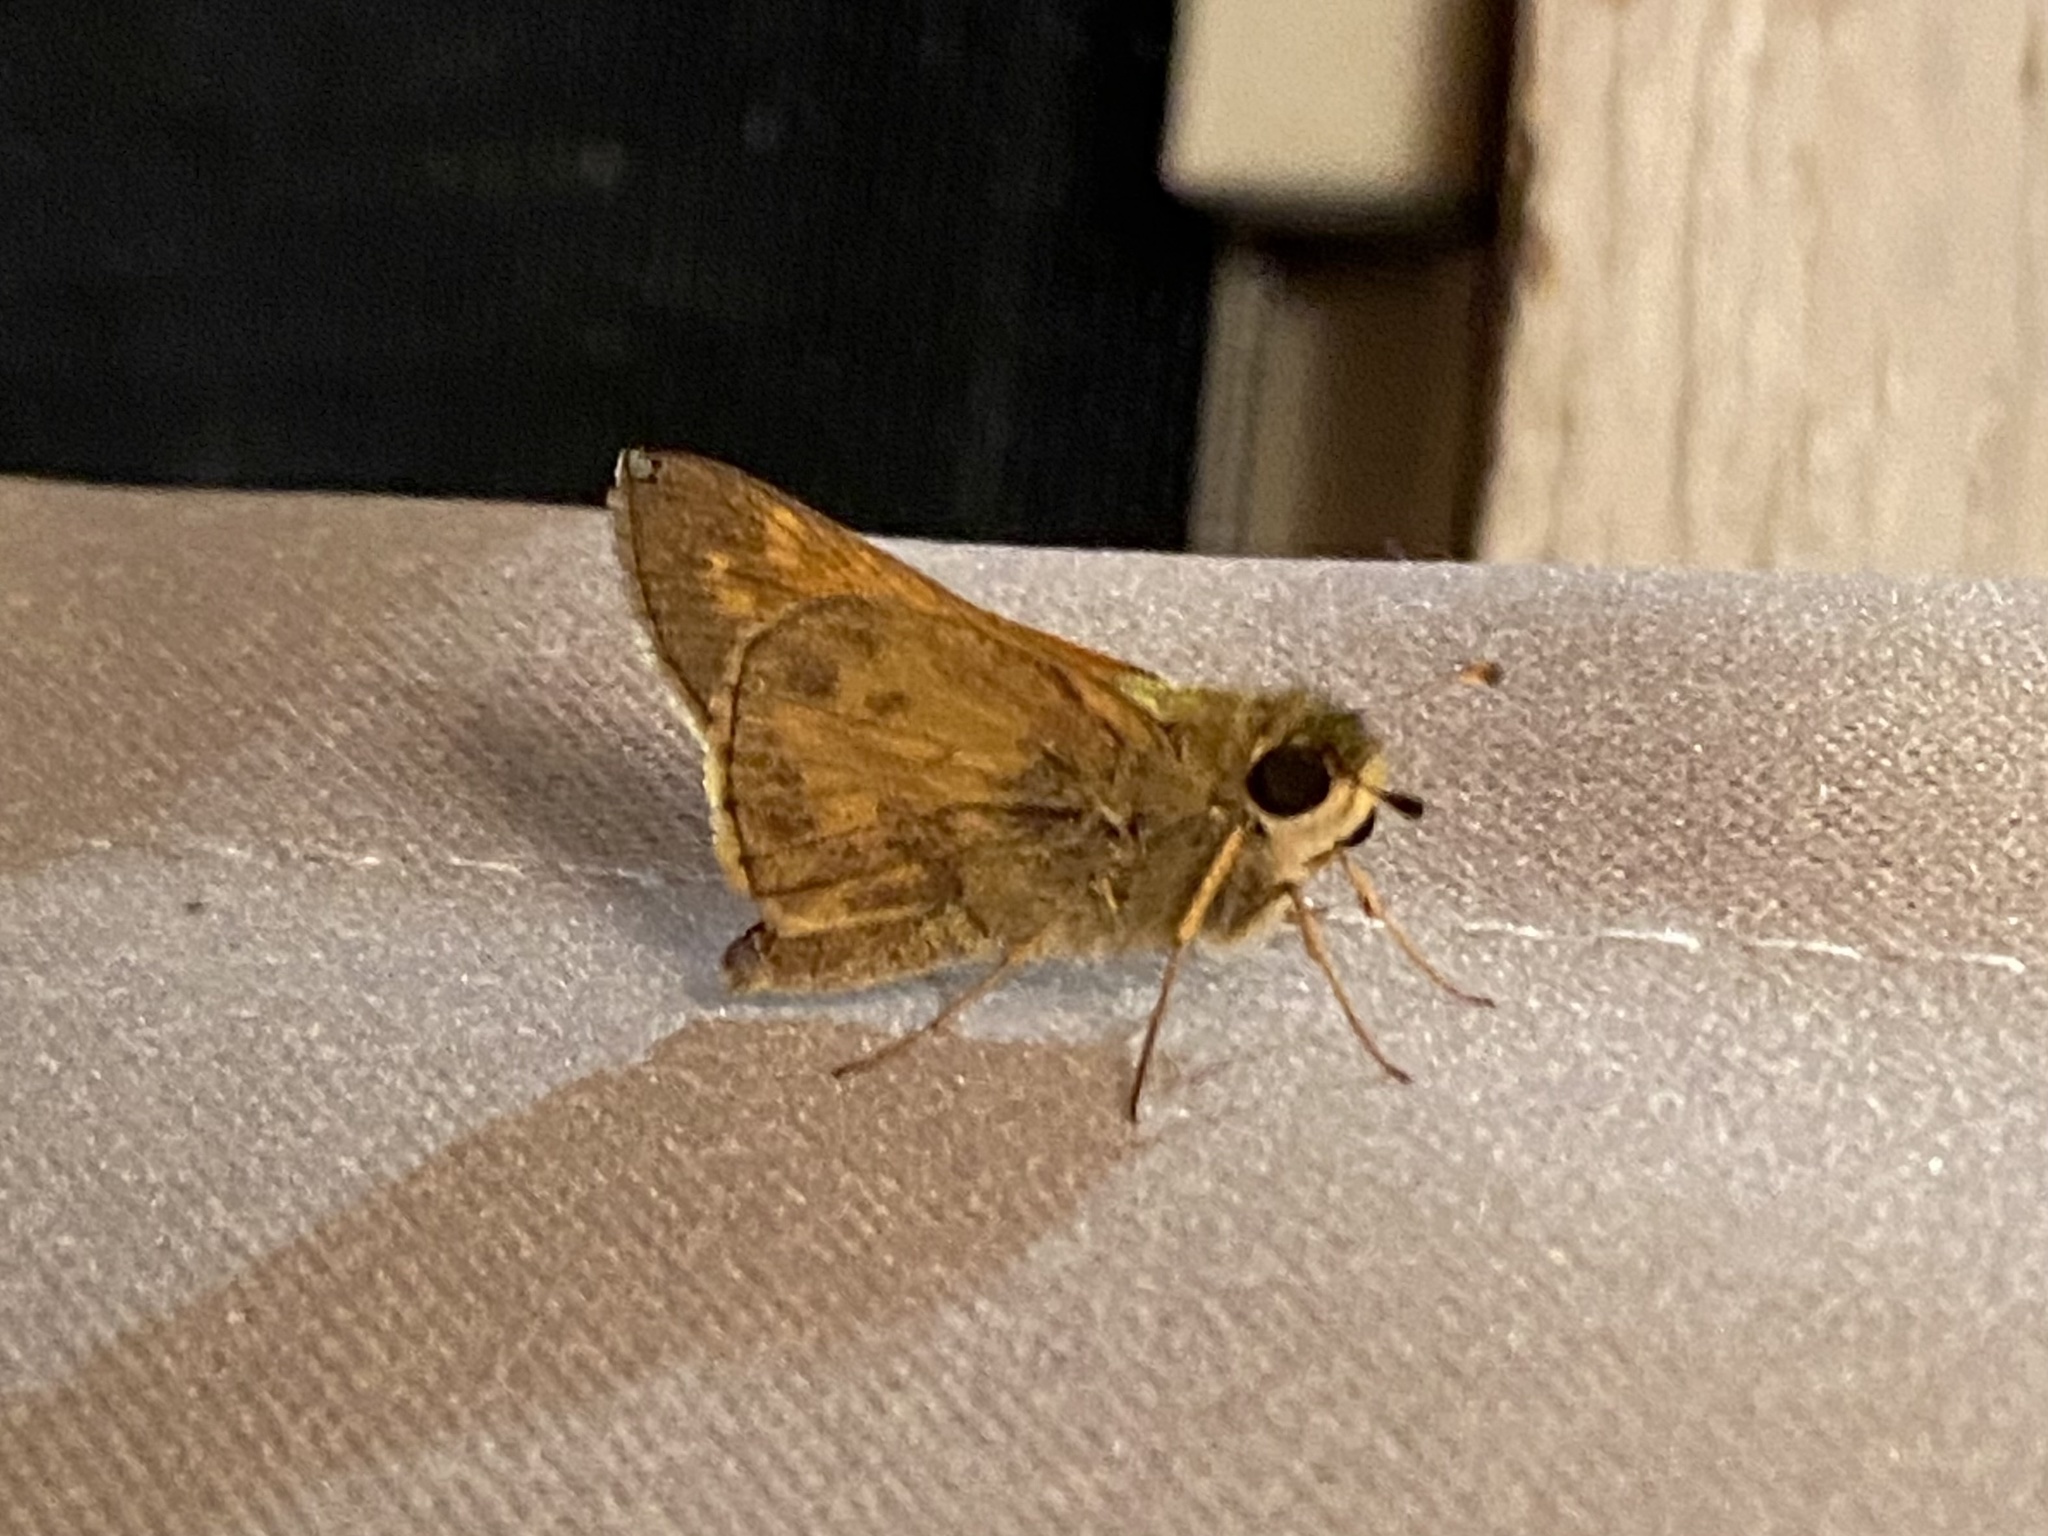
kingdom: Animalia
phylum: Arthropoda
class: Insecta
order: Lepidoptera
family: Hesperiidae
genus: Atalopedes
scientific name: Atalopedes
